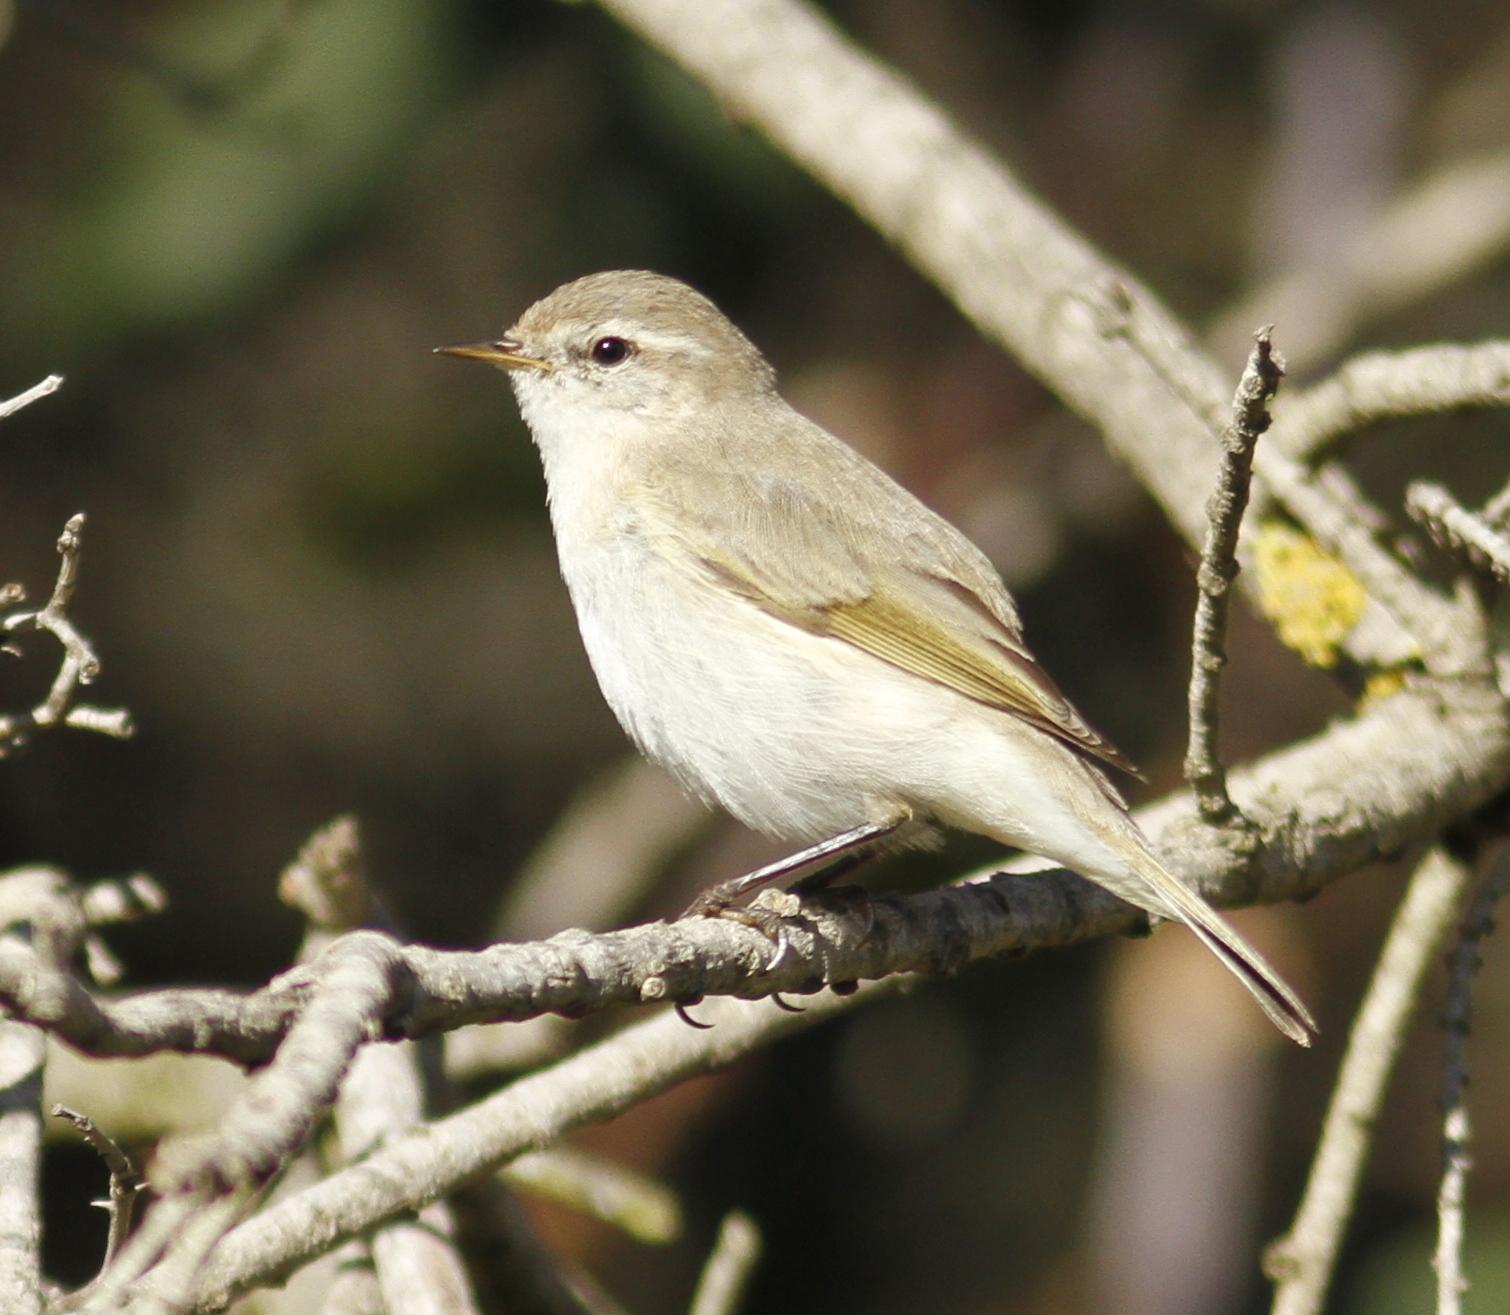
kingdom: Animalia
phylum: Chordata
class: Aves
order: Passeriformes
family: Phylloscopidae
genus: Phylloscopus
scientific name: Phylloscopus collybita
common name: Common chiffchaff
